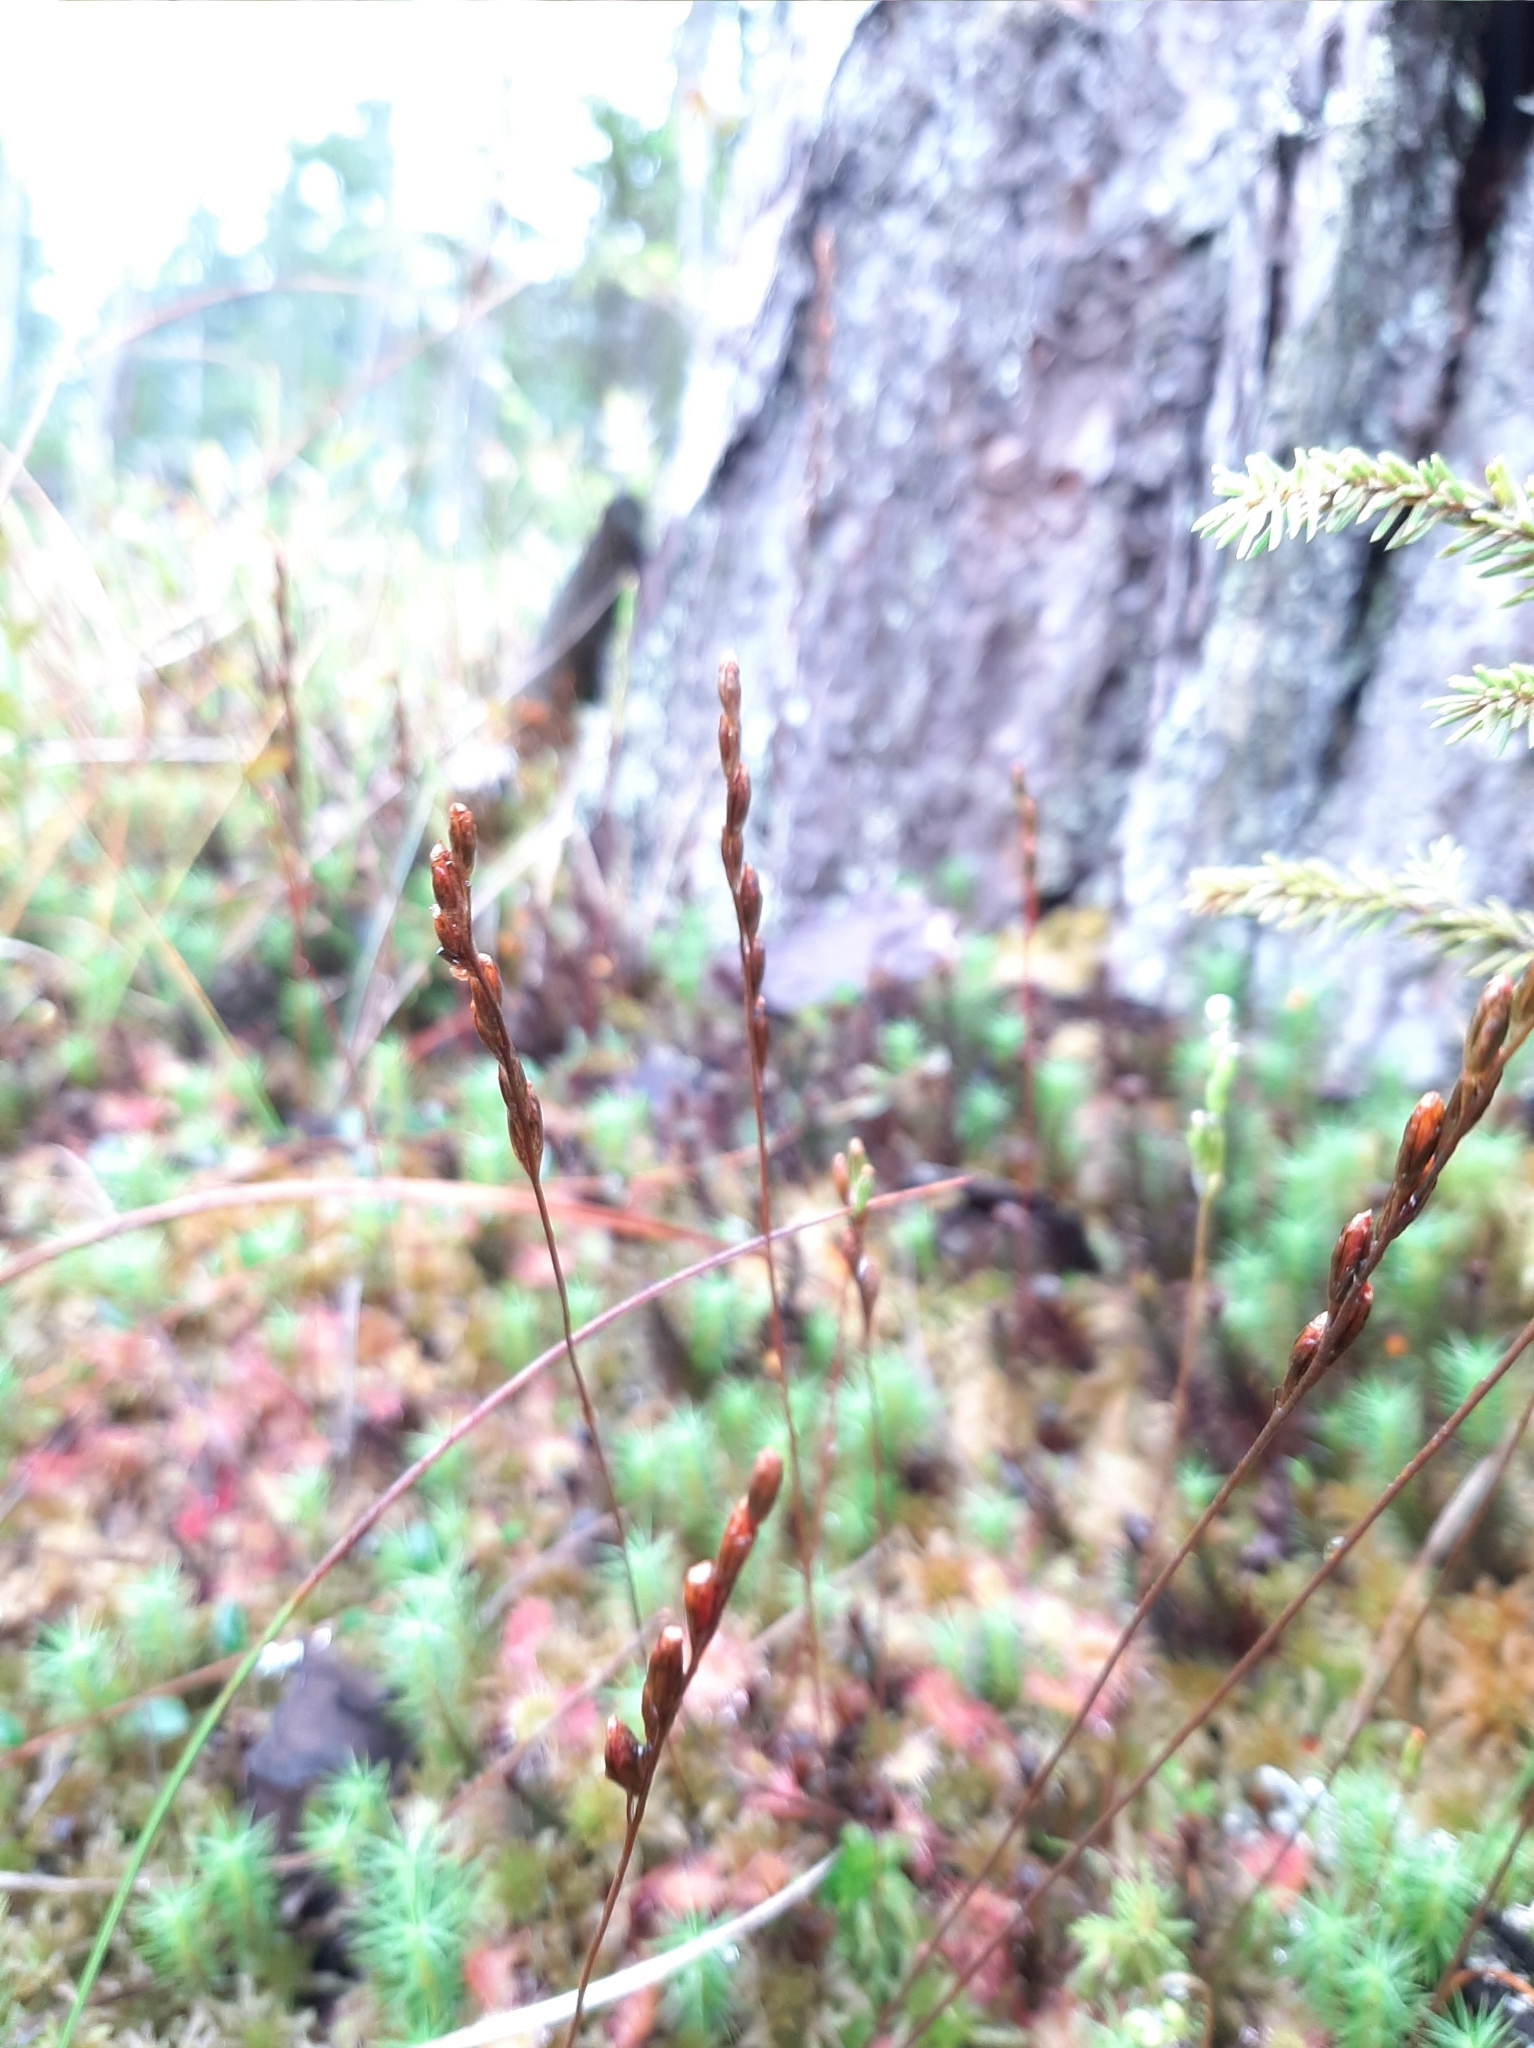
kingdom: Plantae
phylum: Tracheophyta
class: Magnoliopsida
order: Caryophyllales
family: Droseraceae
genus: Drosera
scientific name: Drosera rotundifolia
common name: Round-leaved sundew
